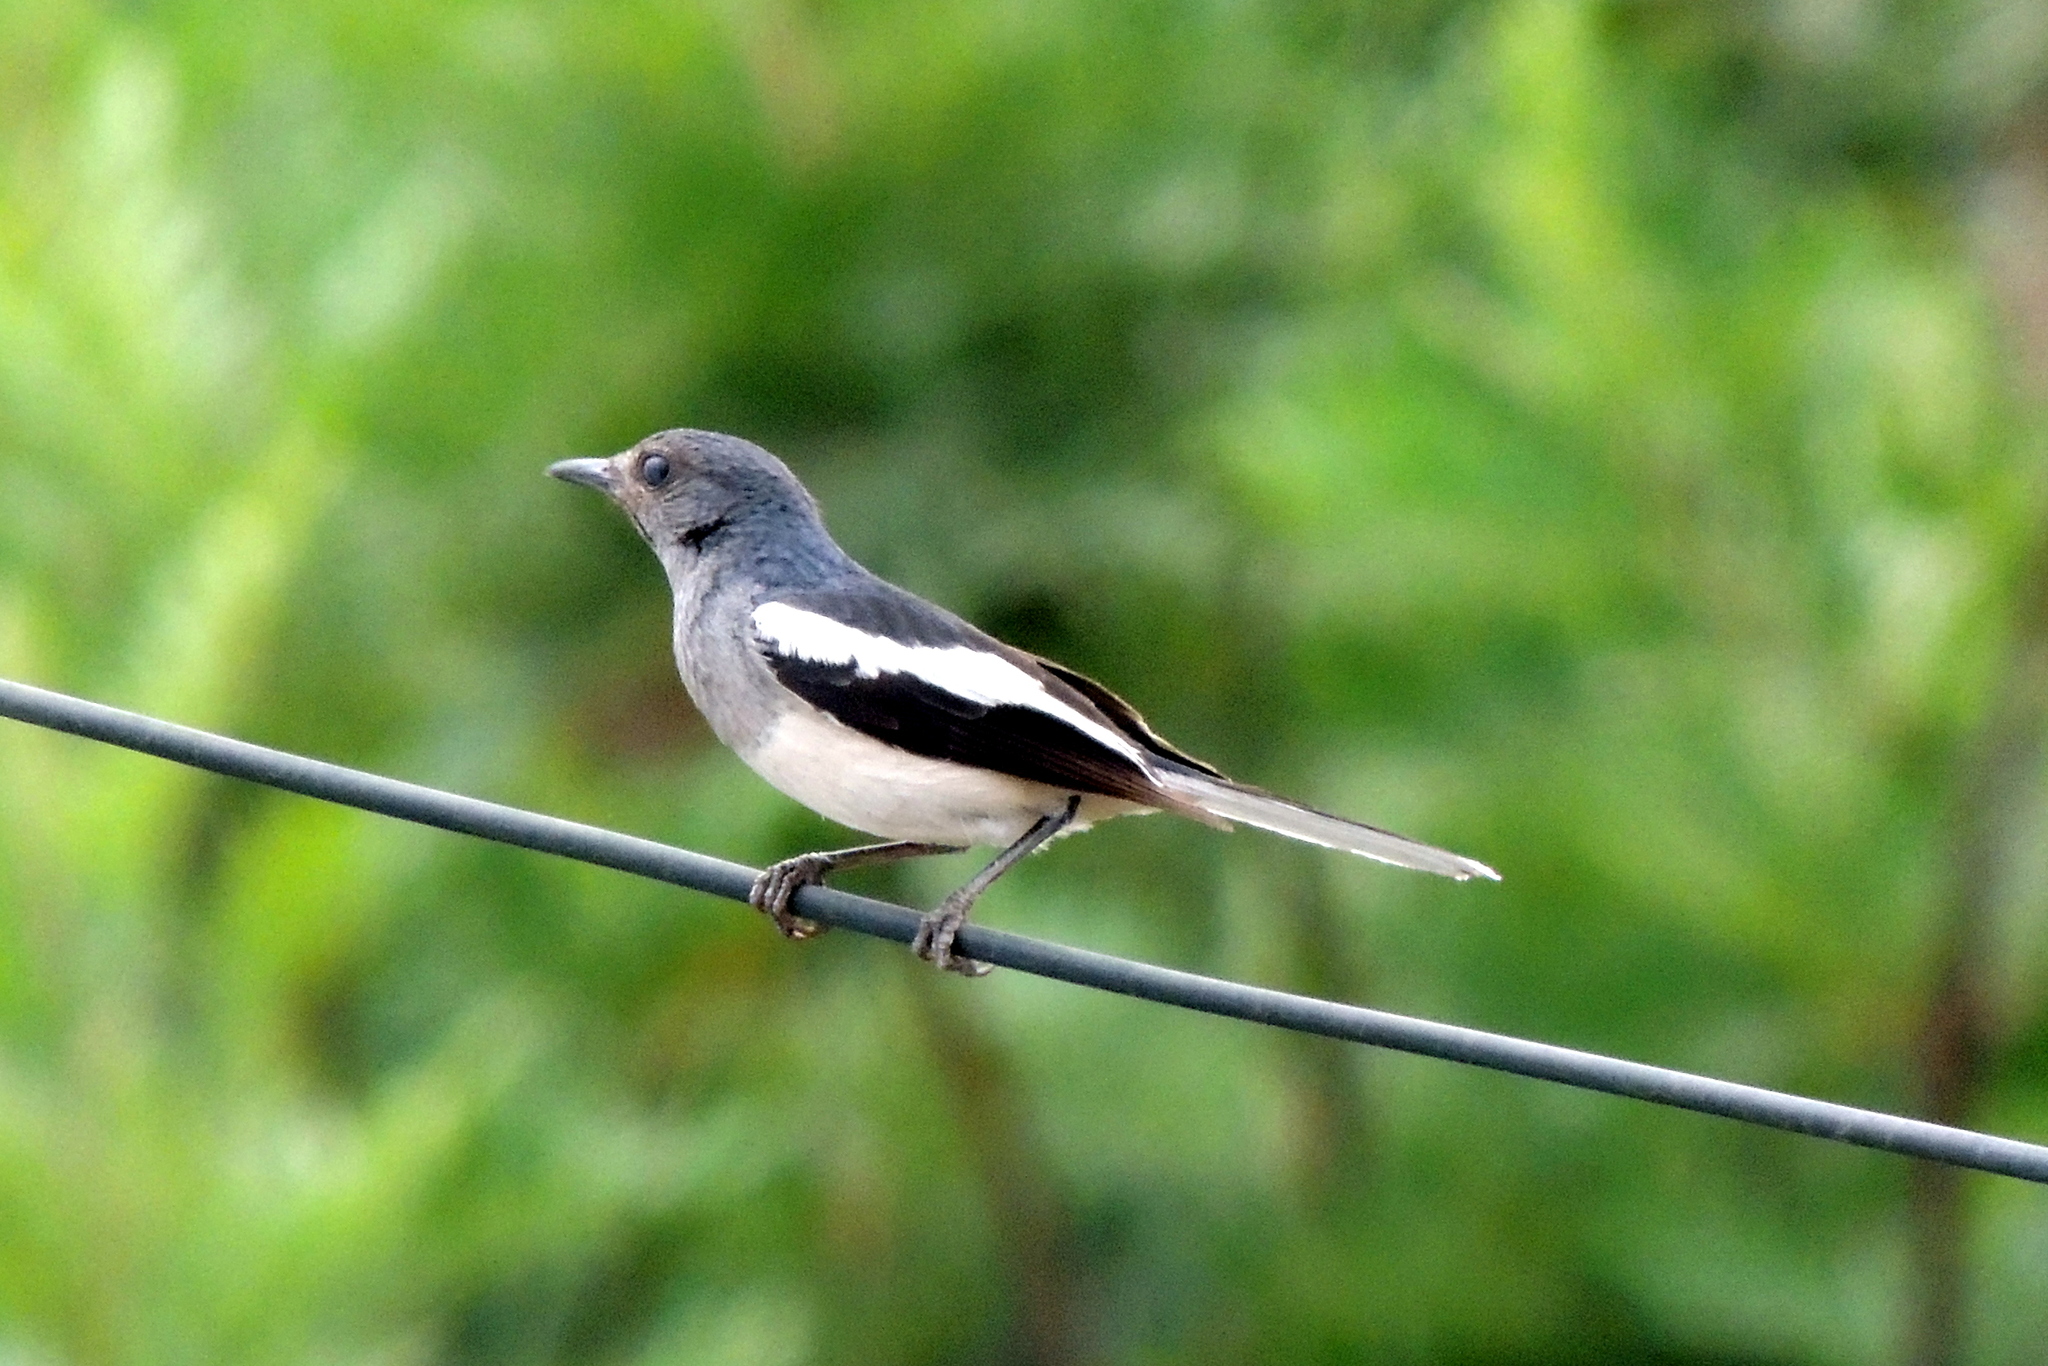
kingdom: Animalia
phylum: Chordata
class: Aves
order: Passeriformes
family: Muscicapidae
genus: Copsychus
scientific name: Copsychus saularis
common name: Oriental magpie-robin
